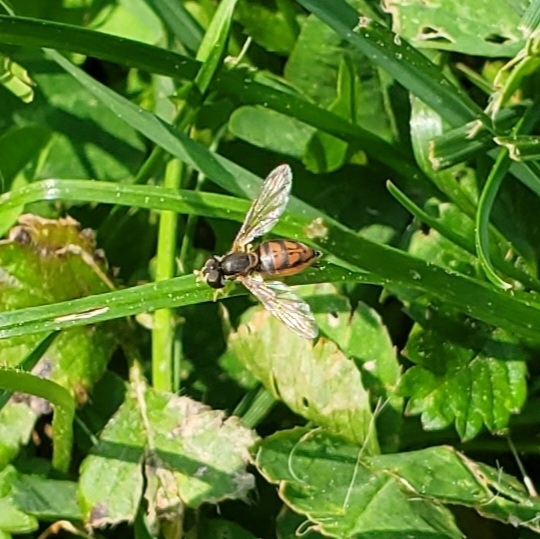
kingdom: Animalia
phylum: Arthropoda
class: Insecta
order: Diptera
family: Syrphidae
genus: Toxomerus
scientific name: Toxomerus marginatus
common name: Syrphid fly
